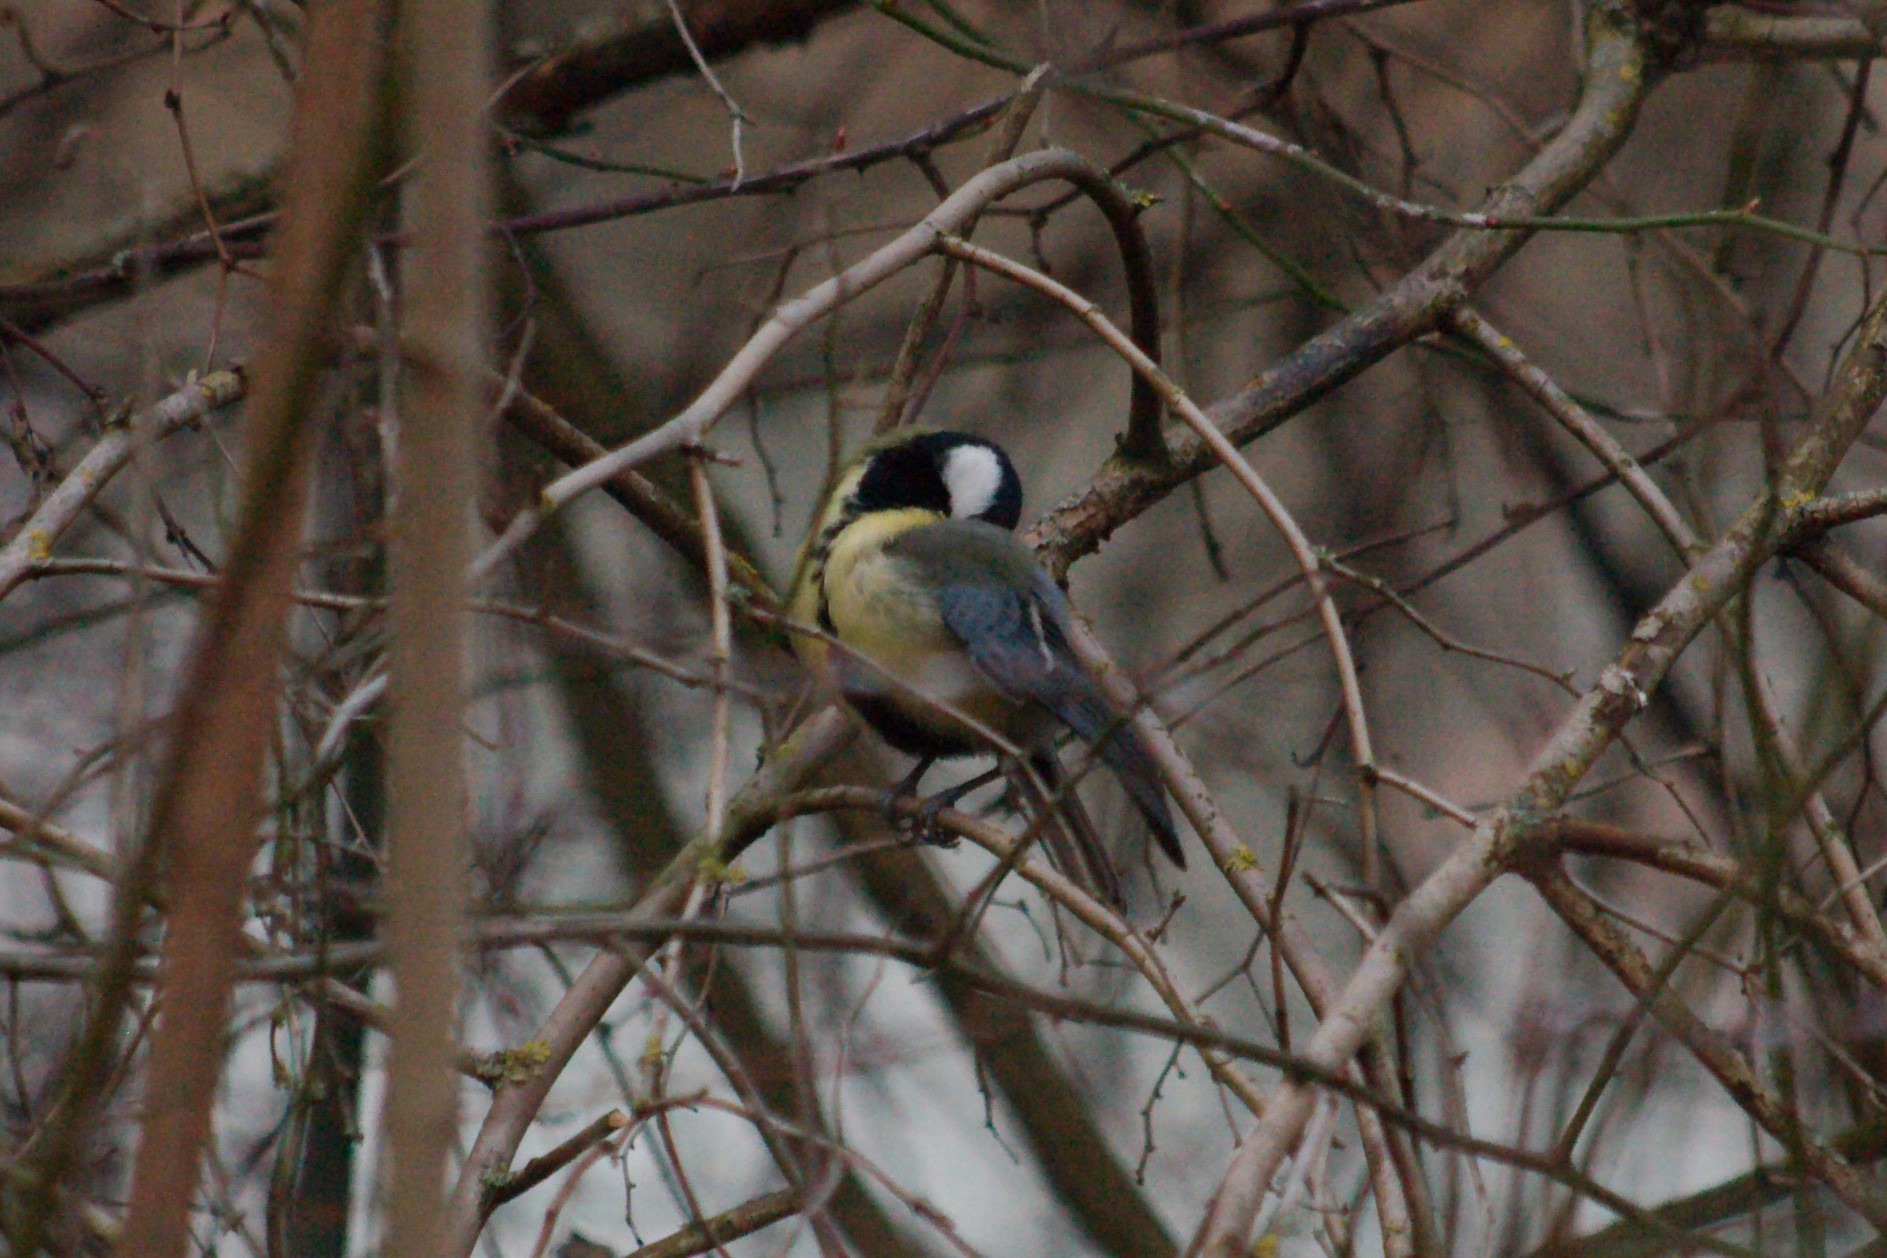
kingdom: Animalia
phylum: Chordata
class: Aves
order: Passeriformes
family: Paridae
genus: Parus
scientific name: Parus major
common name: Great tit
